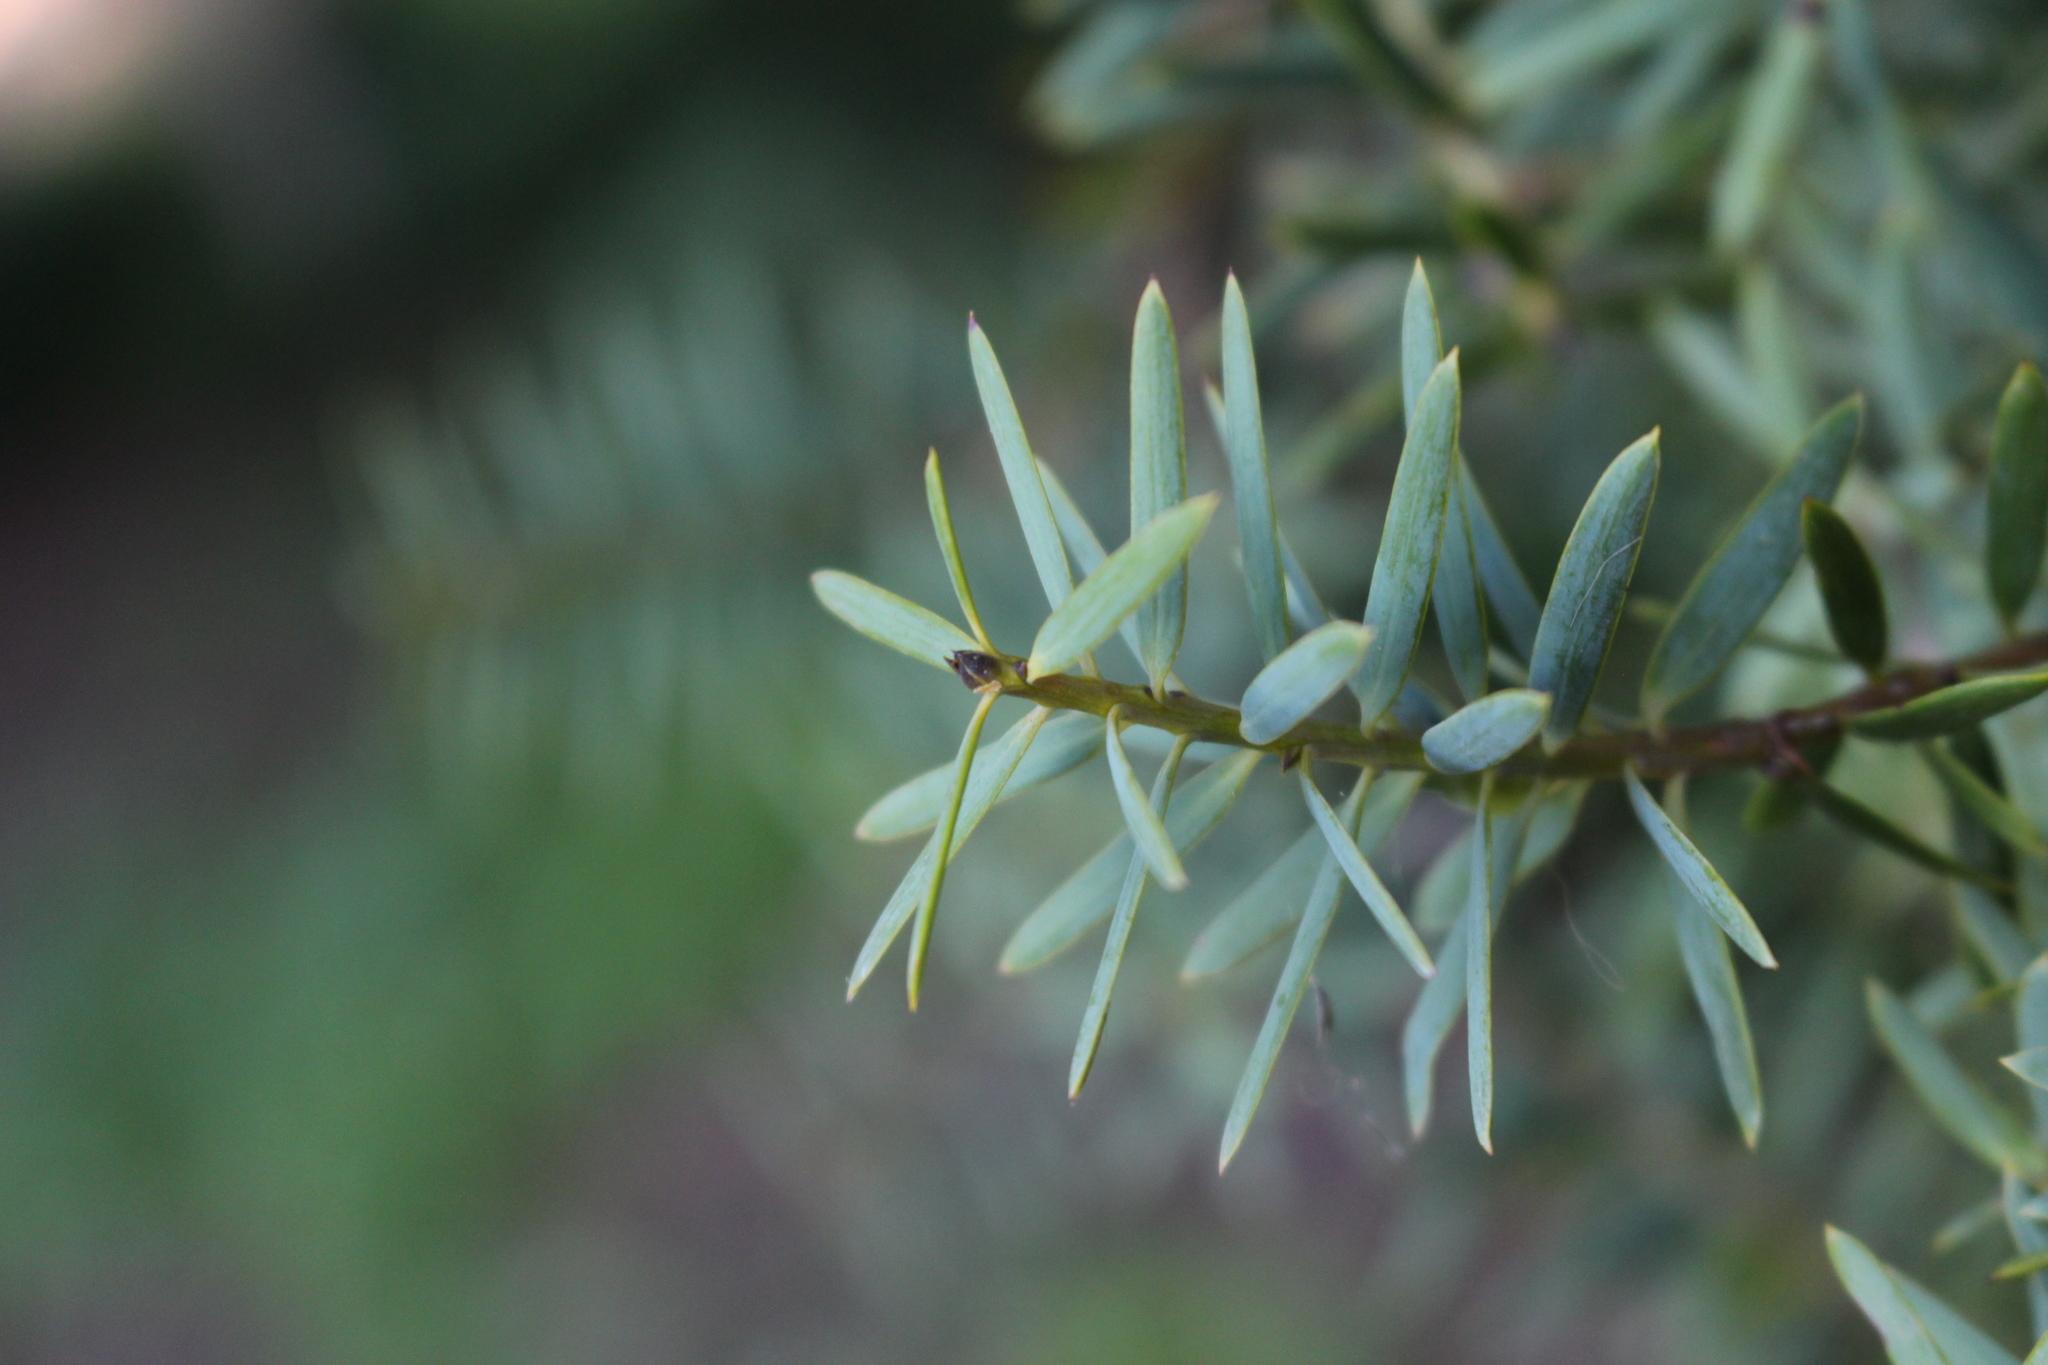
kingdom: Plantae
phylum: Tracheophyta
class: Pinopsida
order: Pinales
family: Podocarpaceae
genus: Podocarpus
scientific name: Podocarpus totara
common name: Totara
